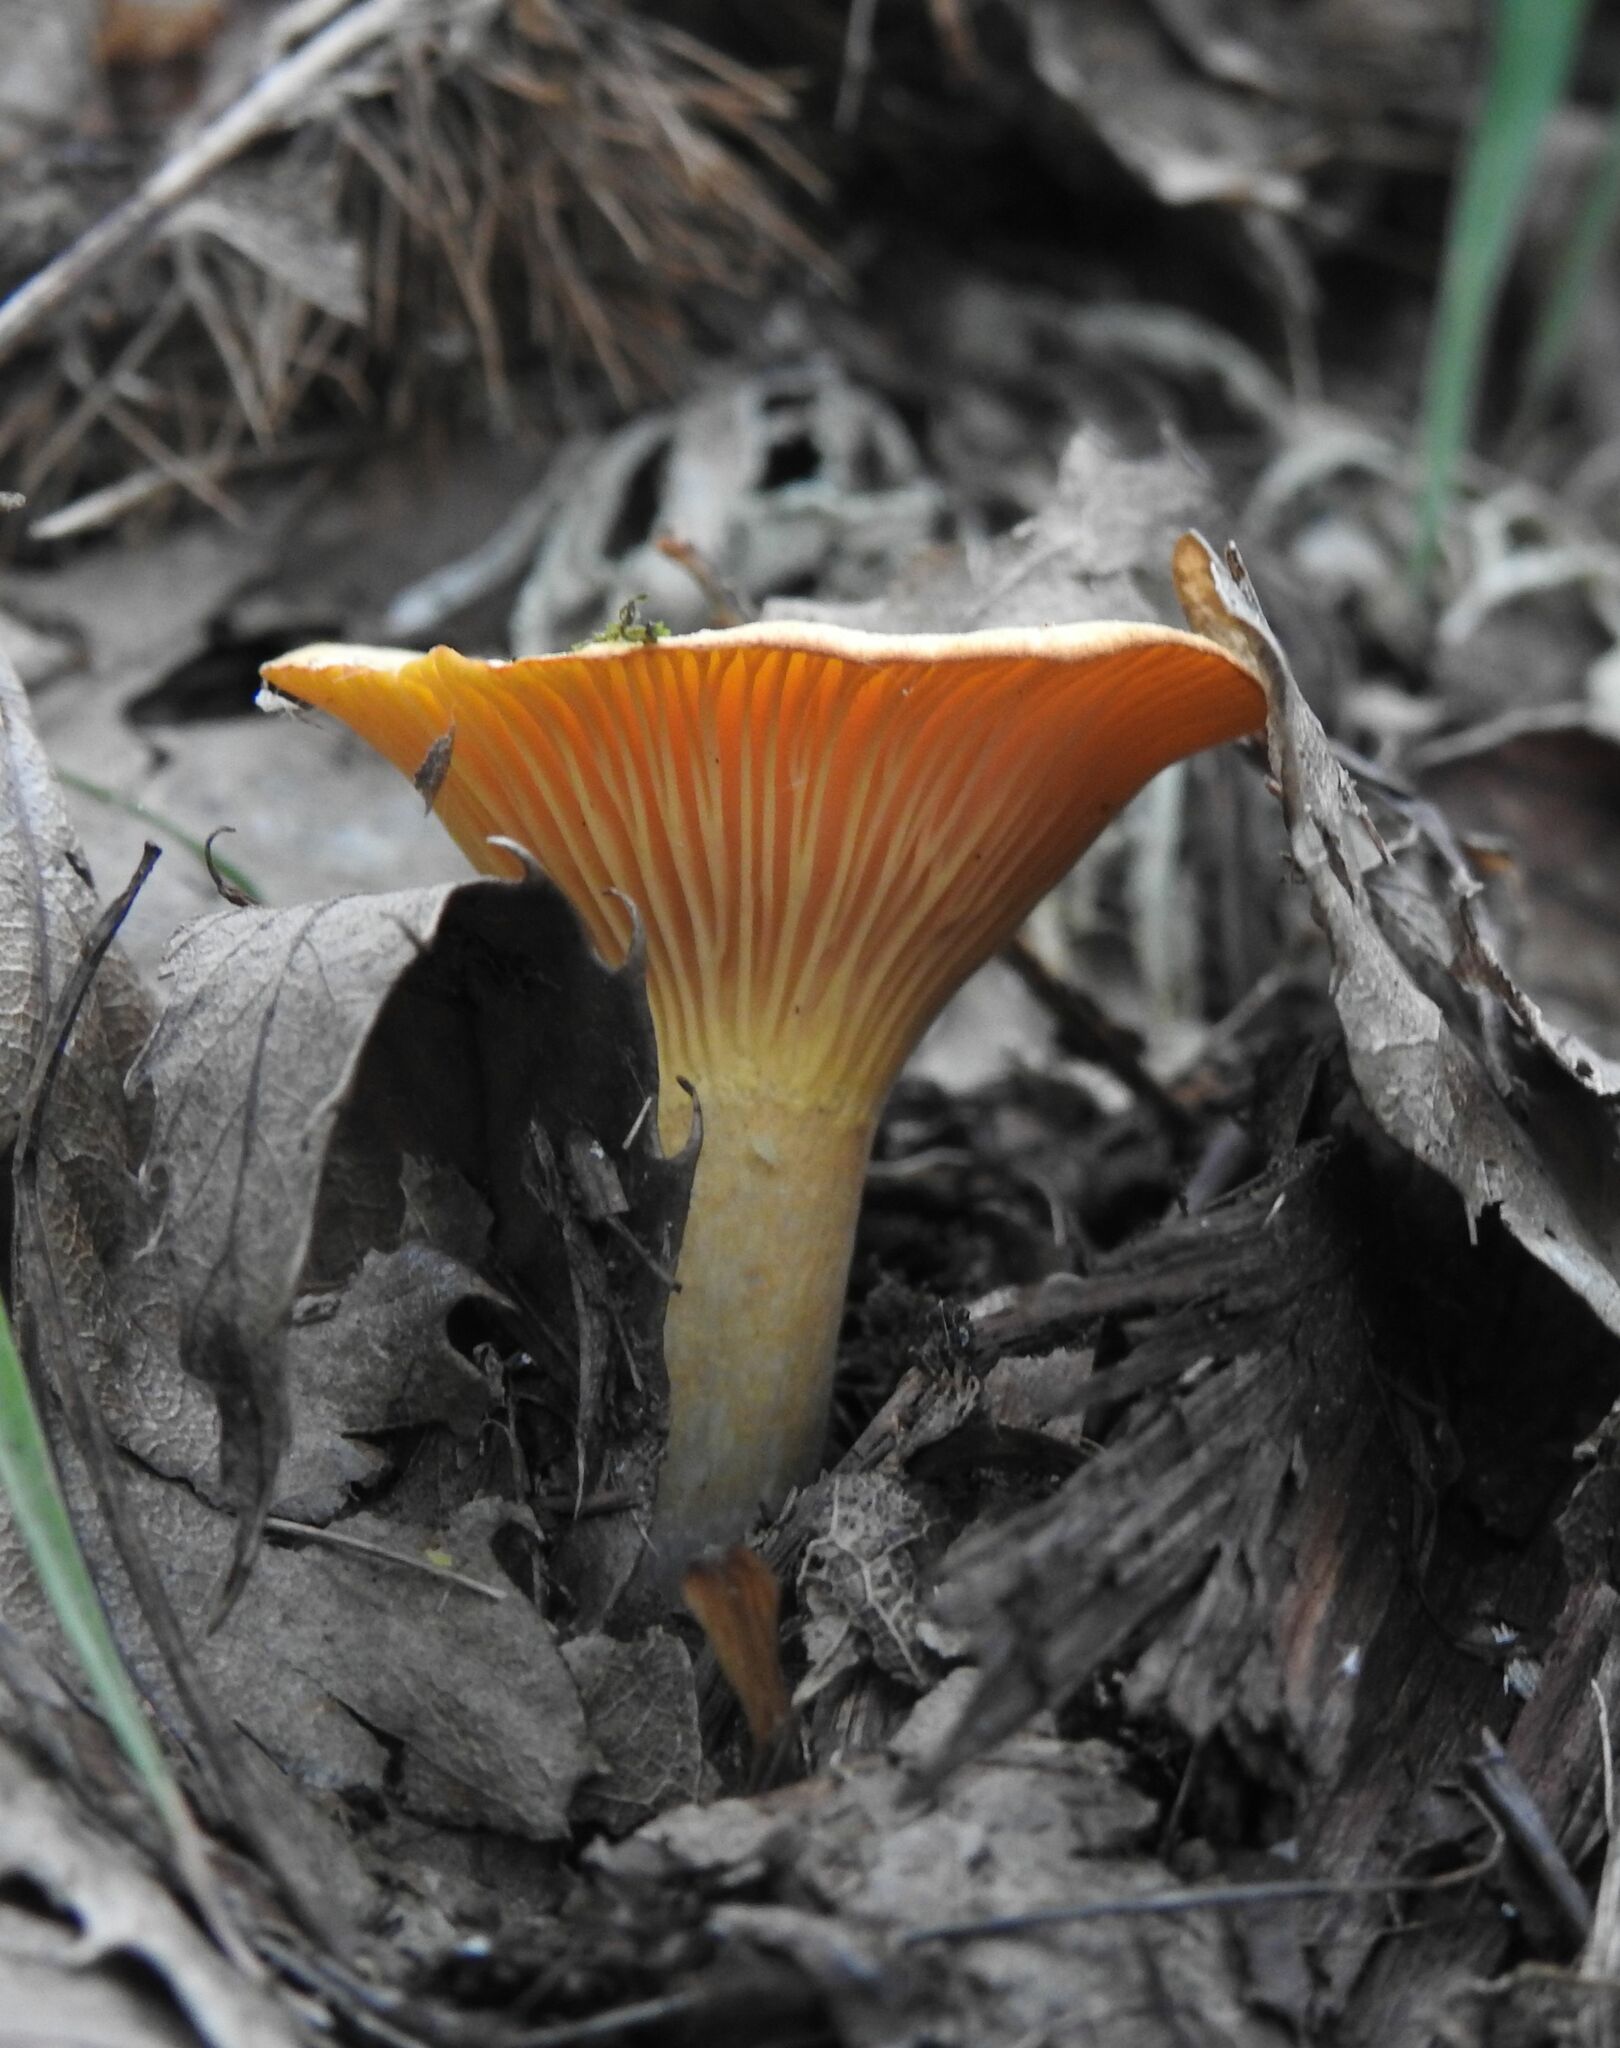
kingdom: Fungi
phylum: Basidiomycota
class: Agaricomycetes
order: Cantharellales
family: Hydnaceae
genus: Cantharellus
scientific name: Cantharellus cibarius
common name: Chanterelle
